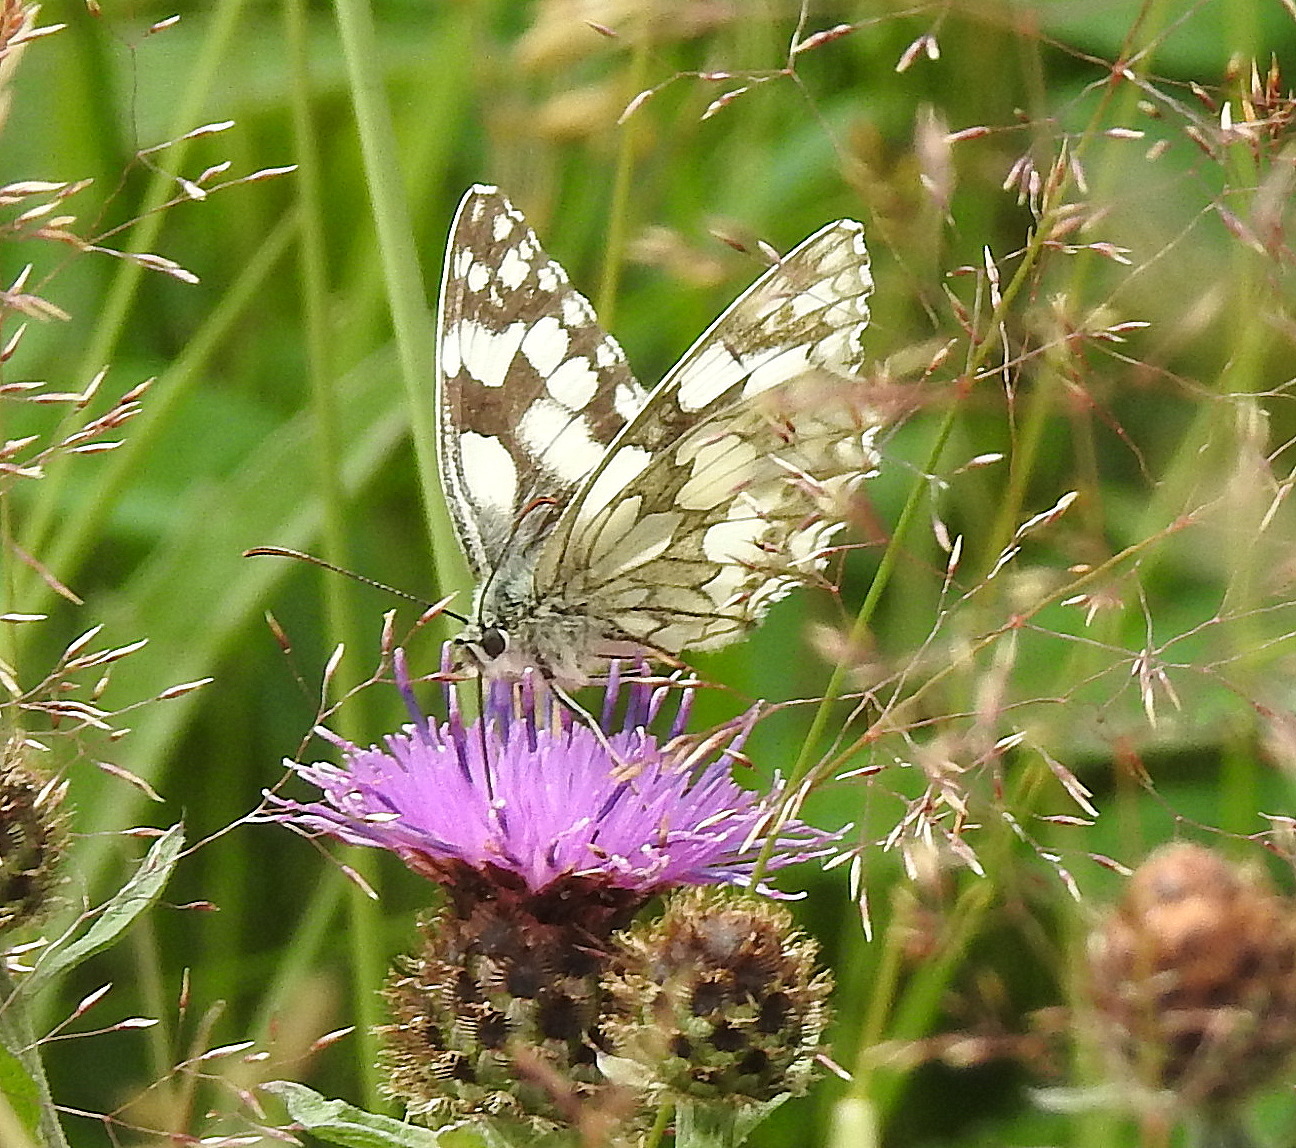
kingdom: Animalia
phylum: Arthropoda
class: Insecta
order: Lepidoptera
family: Nymphalidae
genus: Melanargia
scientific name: Melanargia galathea
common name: Marbled white
